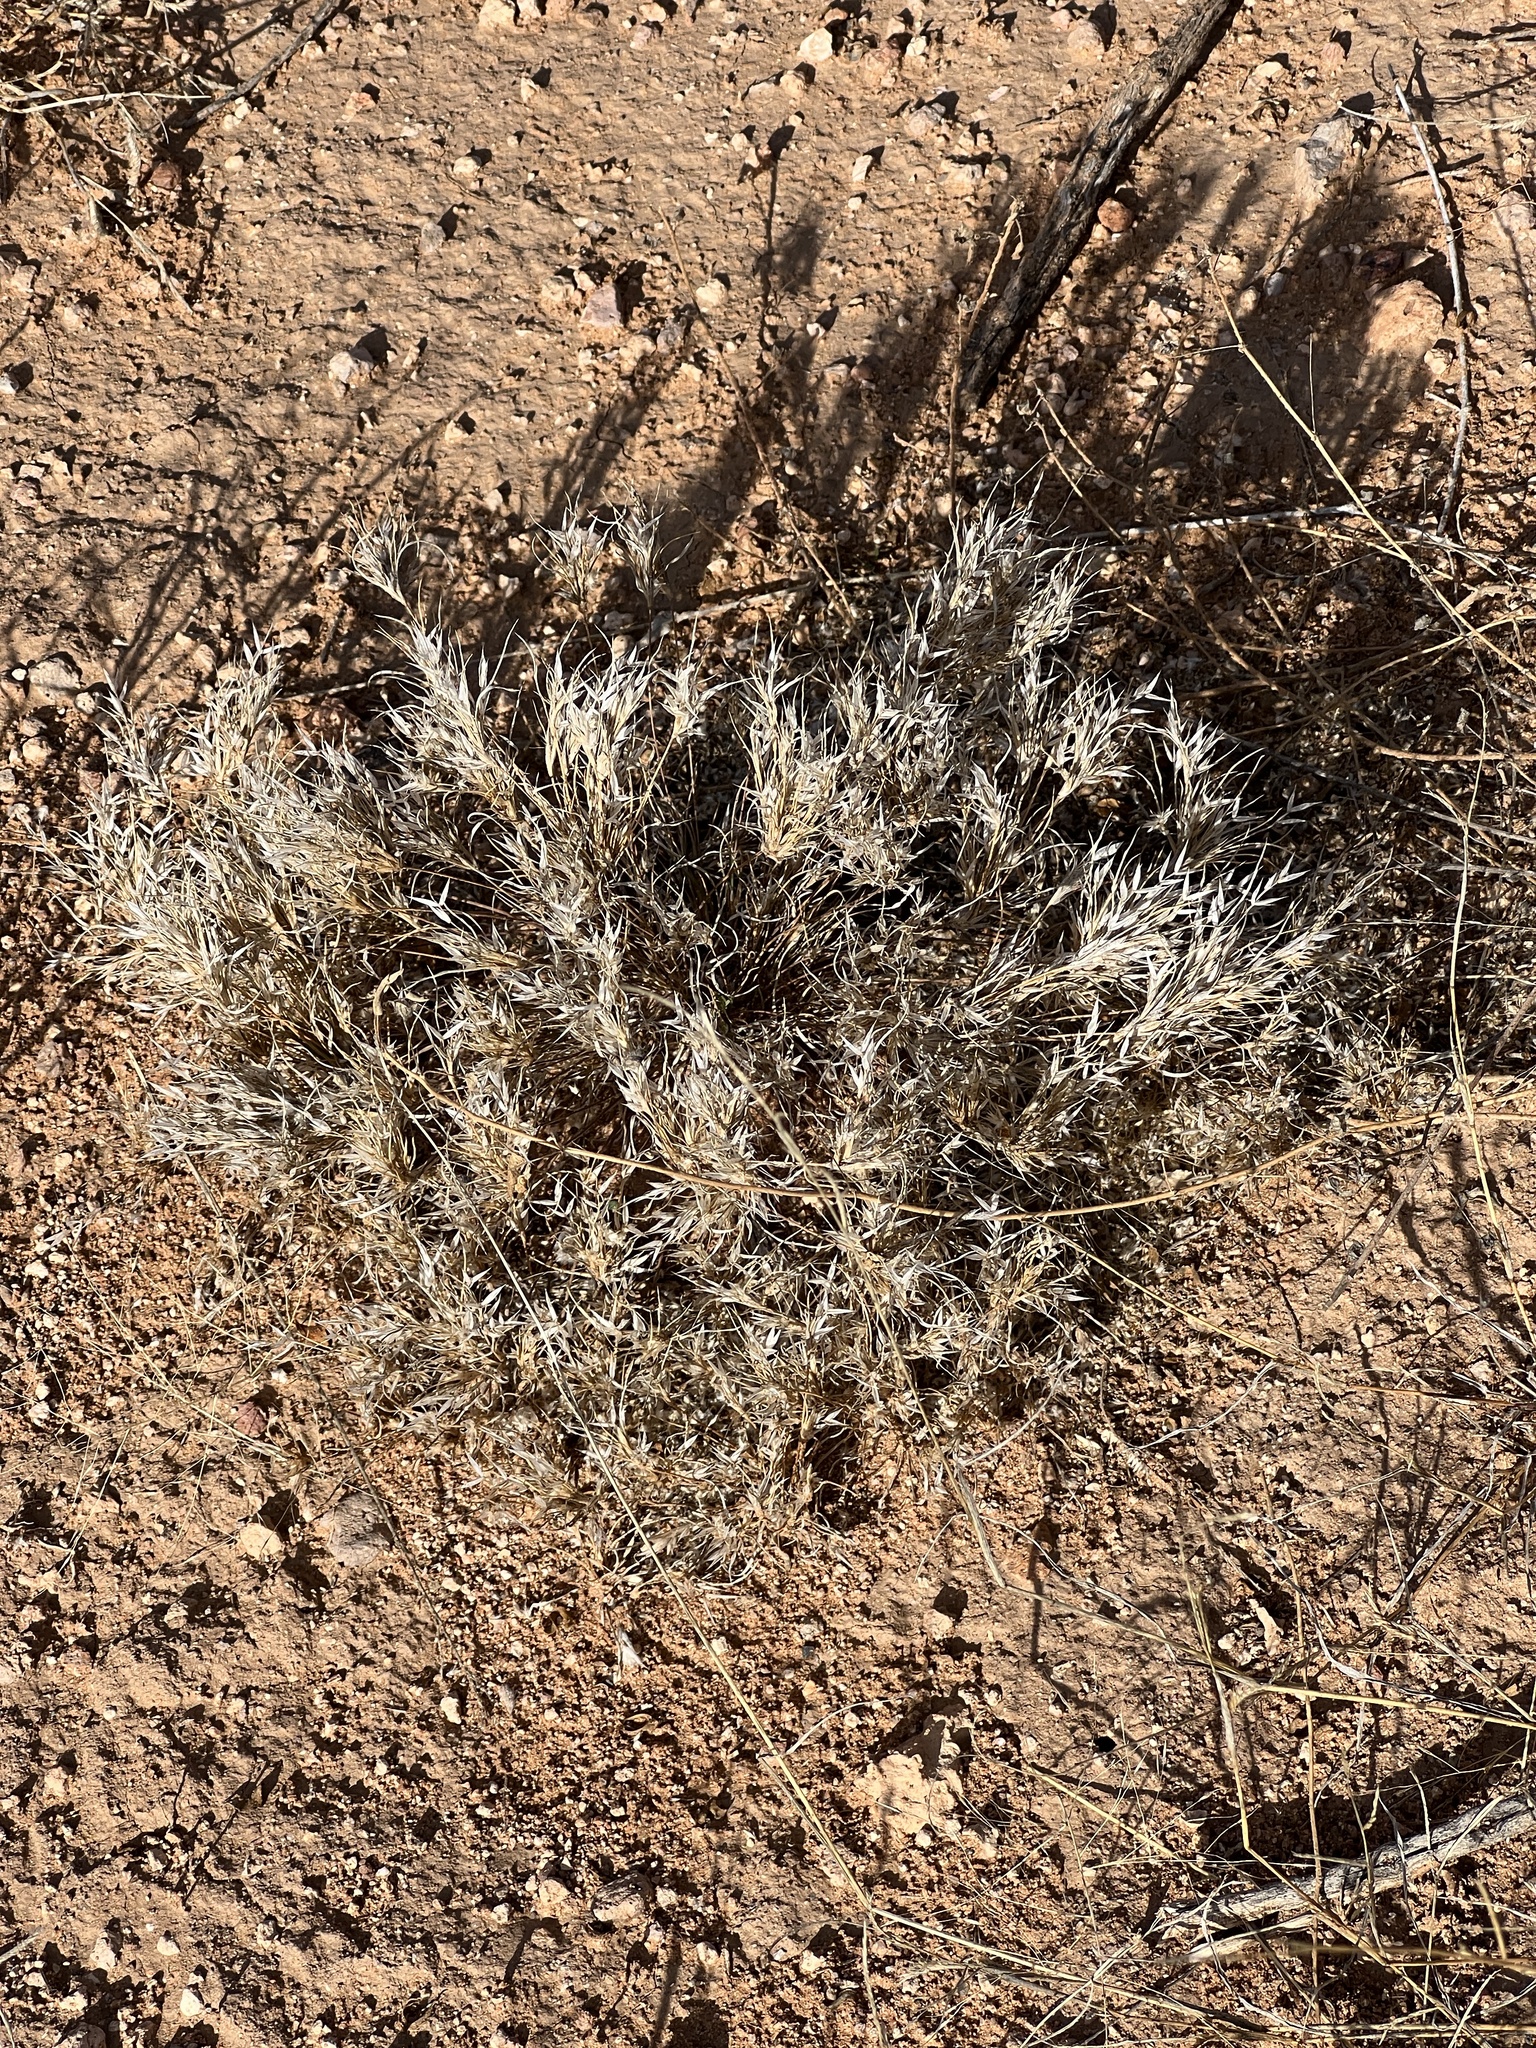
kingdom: Plantae
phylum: Tracheophyta
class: Liliopsida
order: Poales
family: Poaceae
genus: Dasyochloa
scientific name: Dasyochloa pulchella
